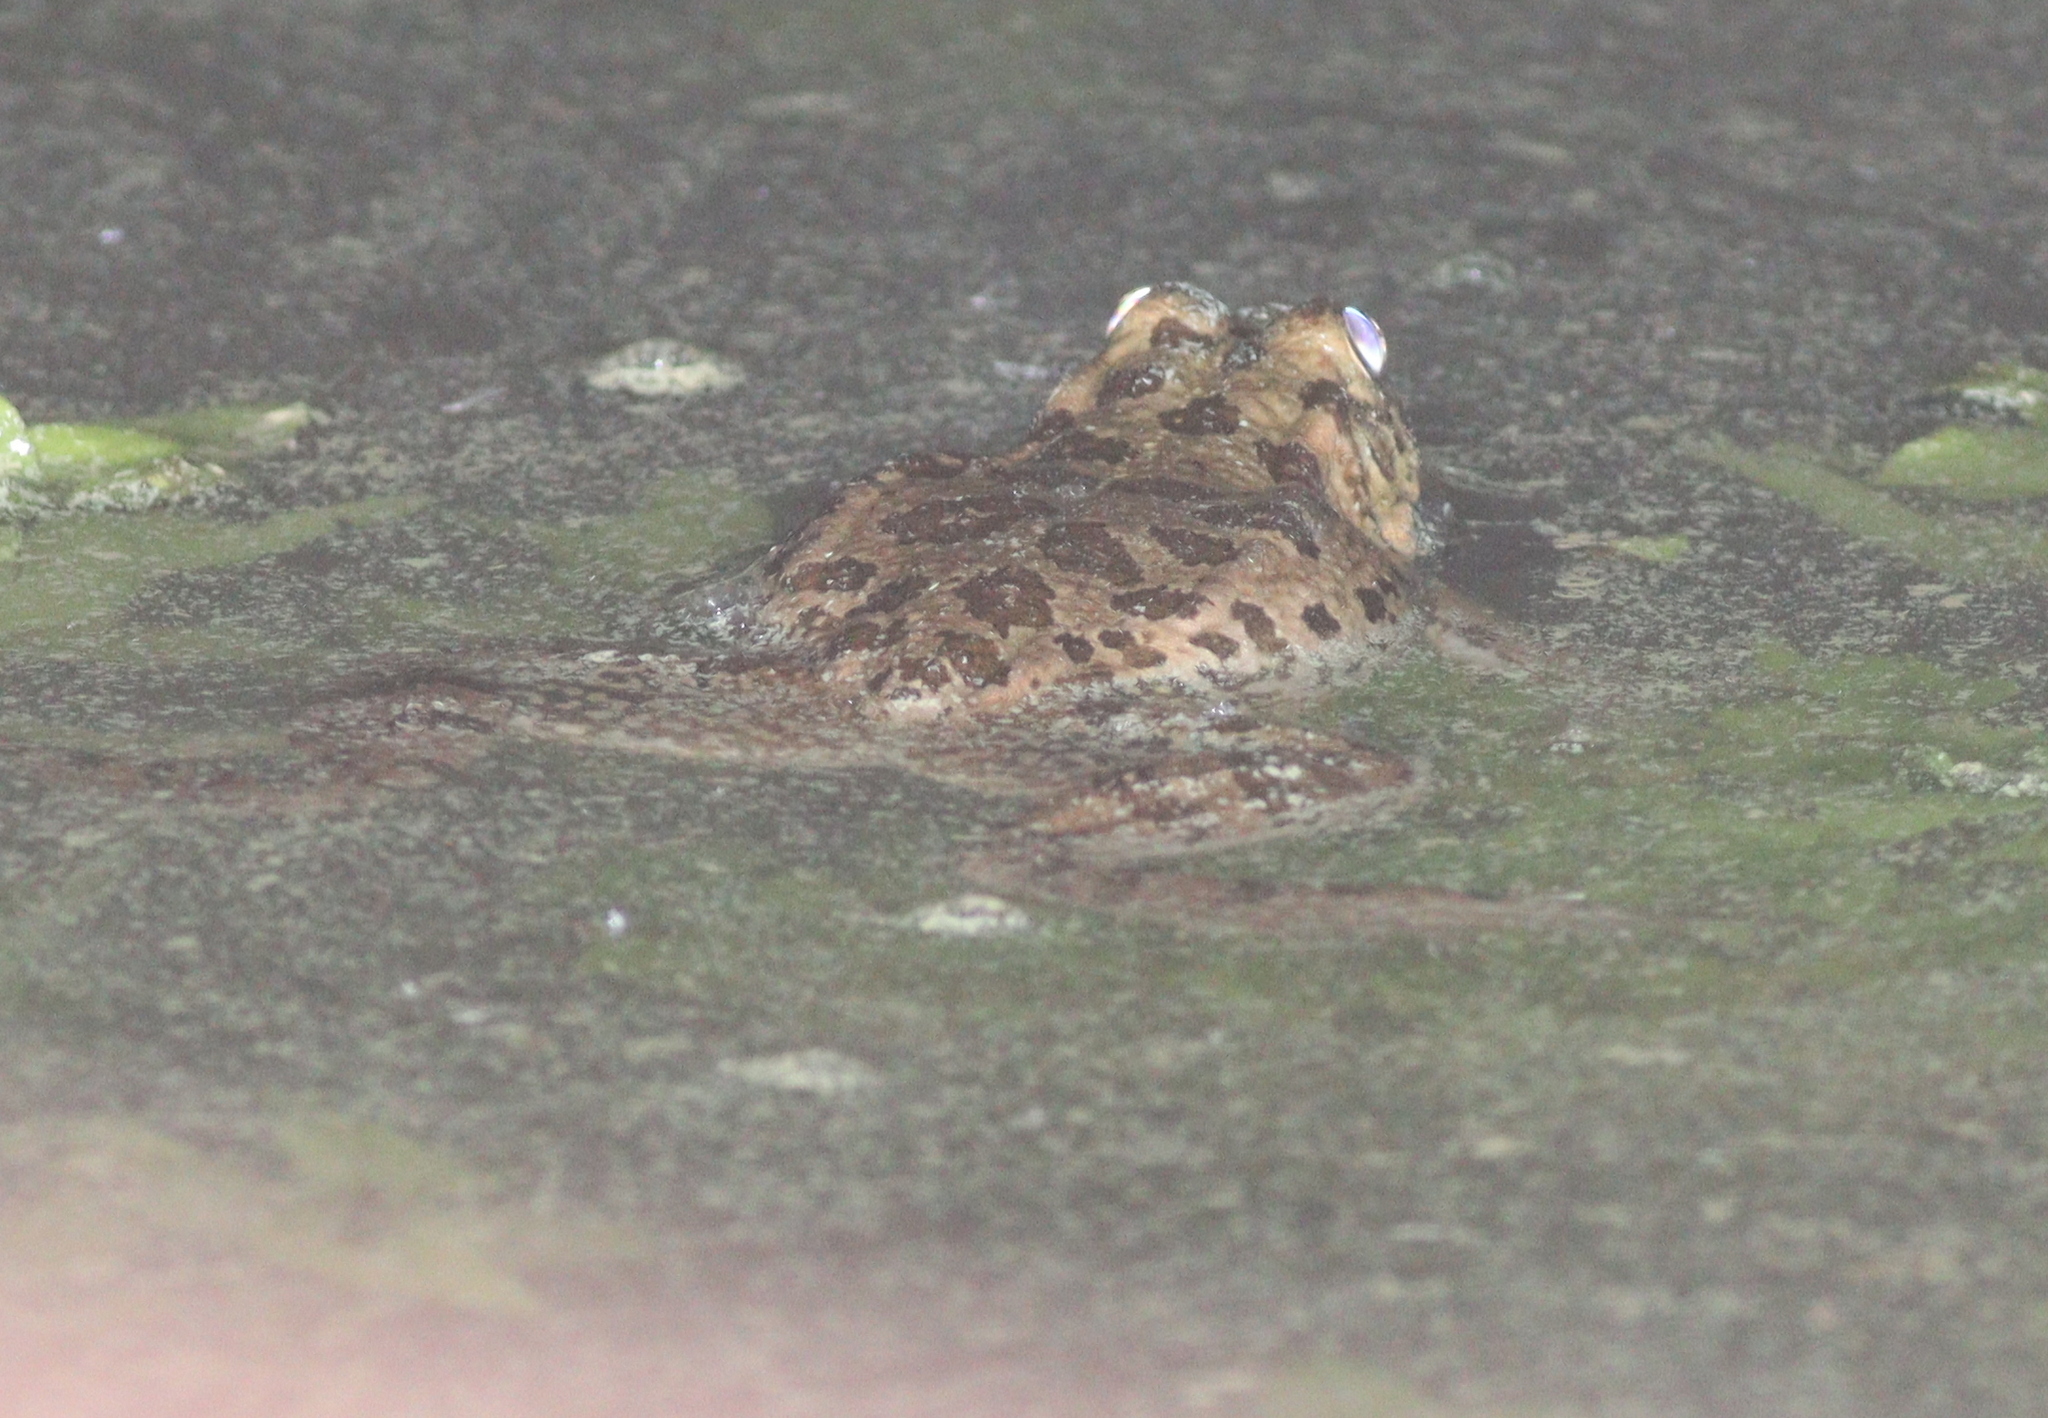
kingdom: Animalia
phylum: Chordata
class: Amphibia
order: Anura
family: Ranidae
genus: Pelophylax
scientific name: Pelophylax ridibundus
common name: Marsh frog
